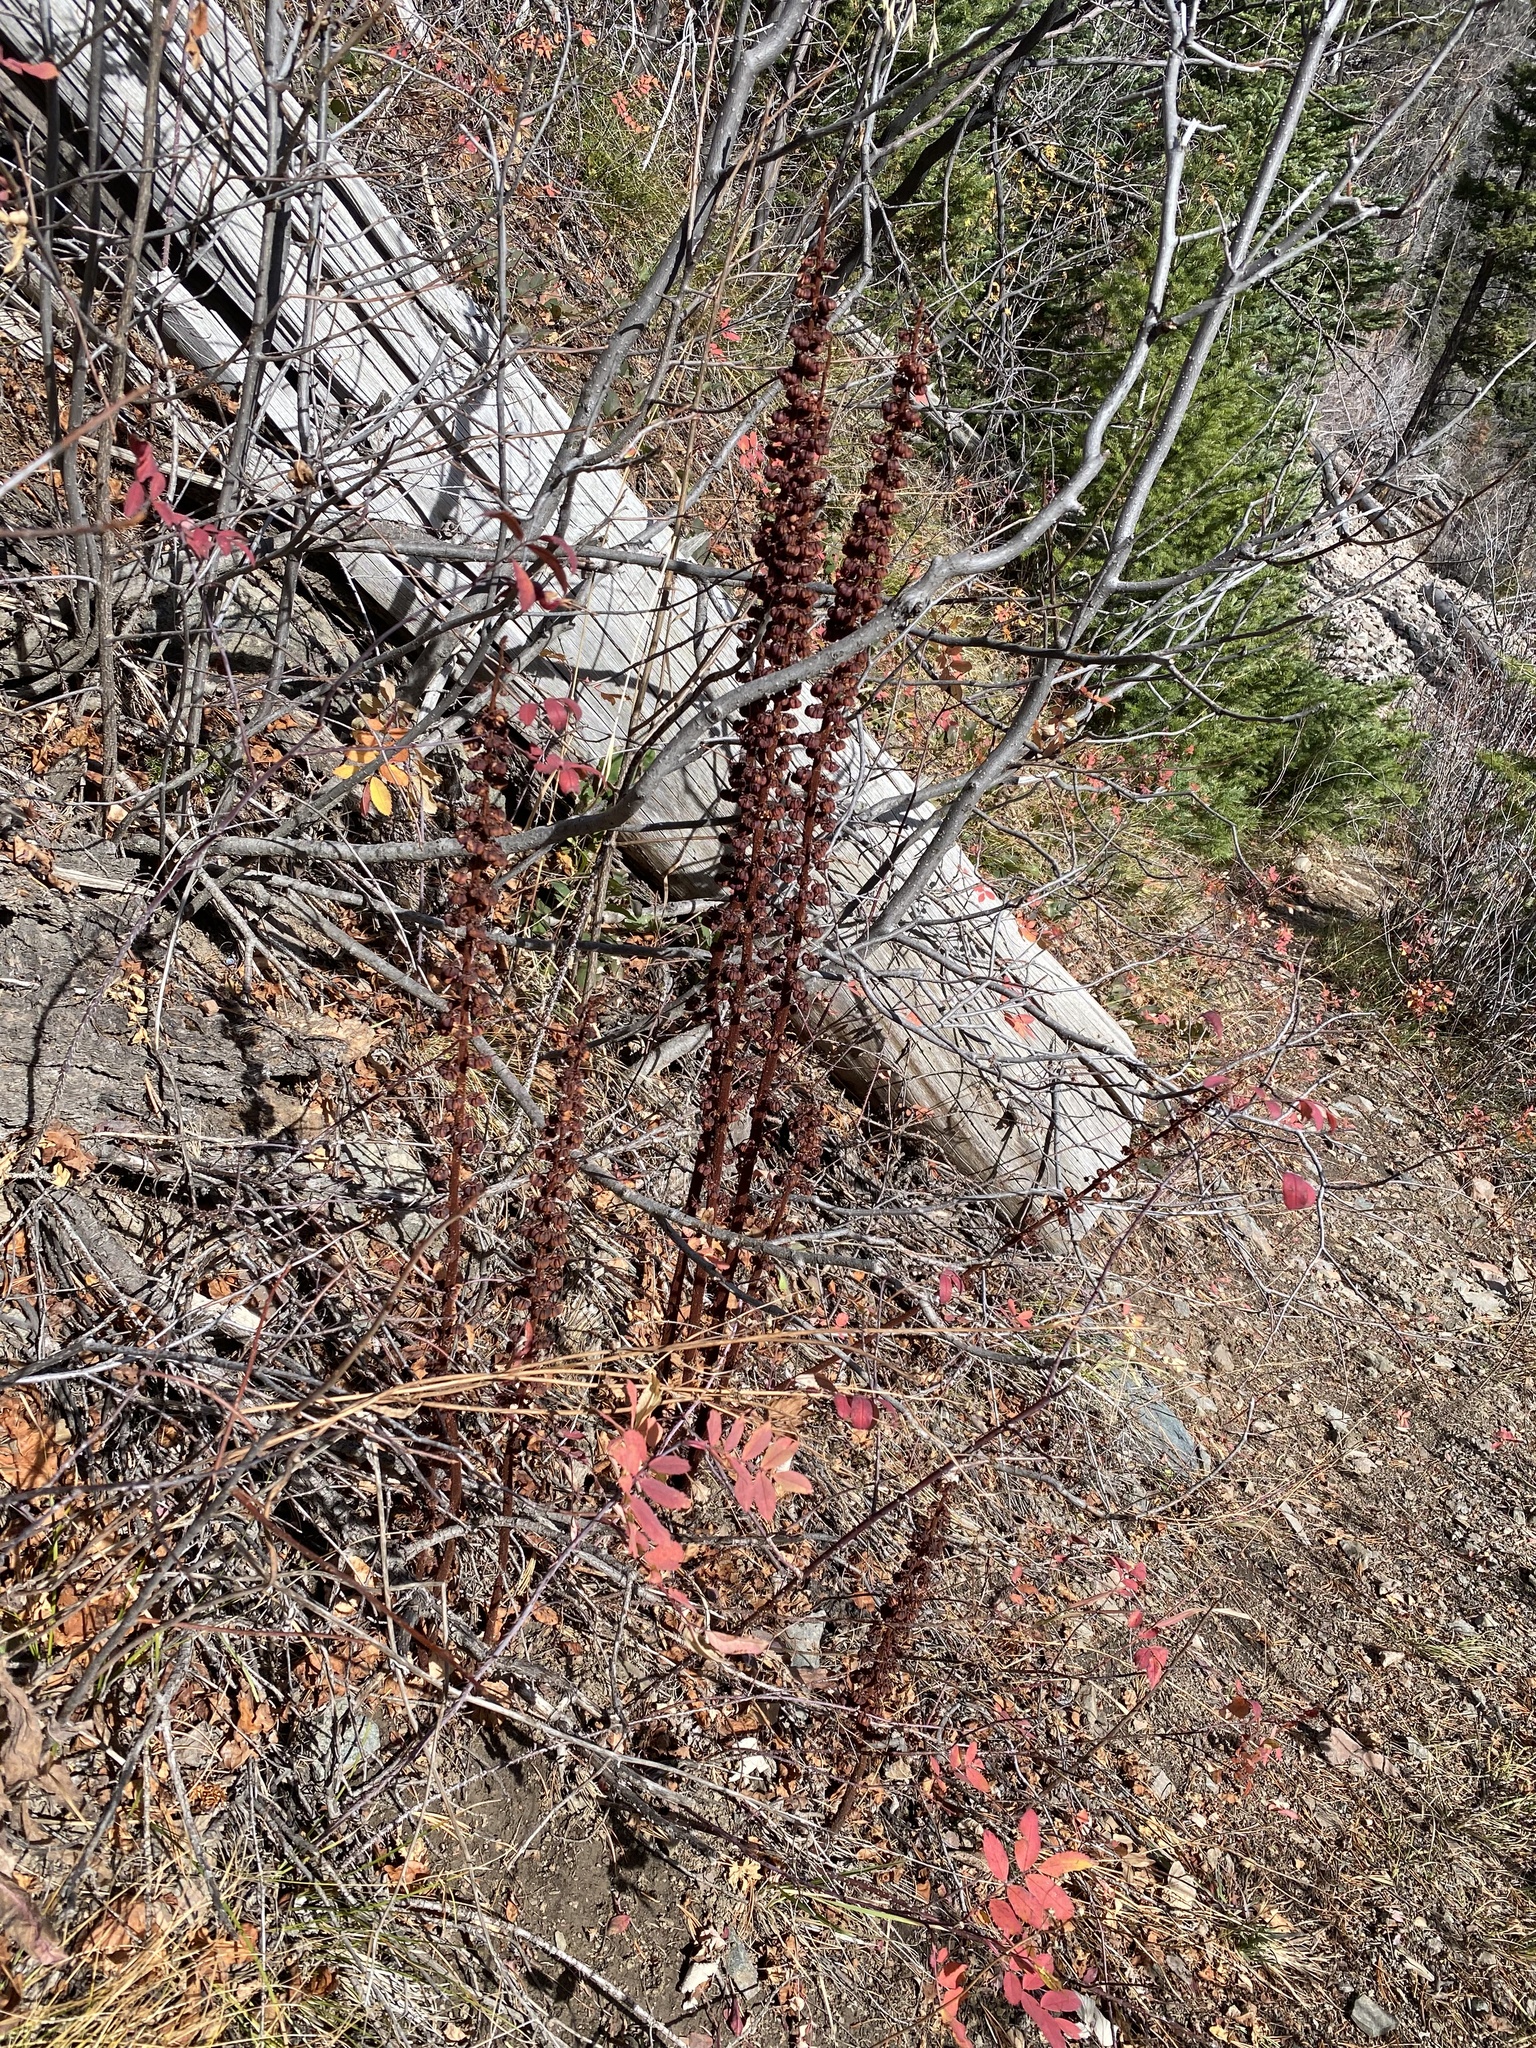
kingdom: Plantae
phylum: Tracheophyta
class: Magnoliopsida
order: Ericales
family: Ericaceae
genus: Pterospora
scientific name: Pterospora andromedea
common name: Giant bird's-nest
